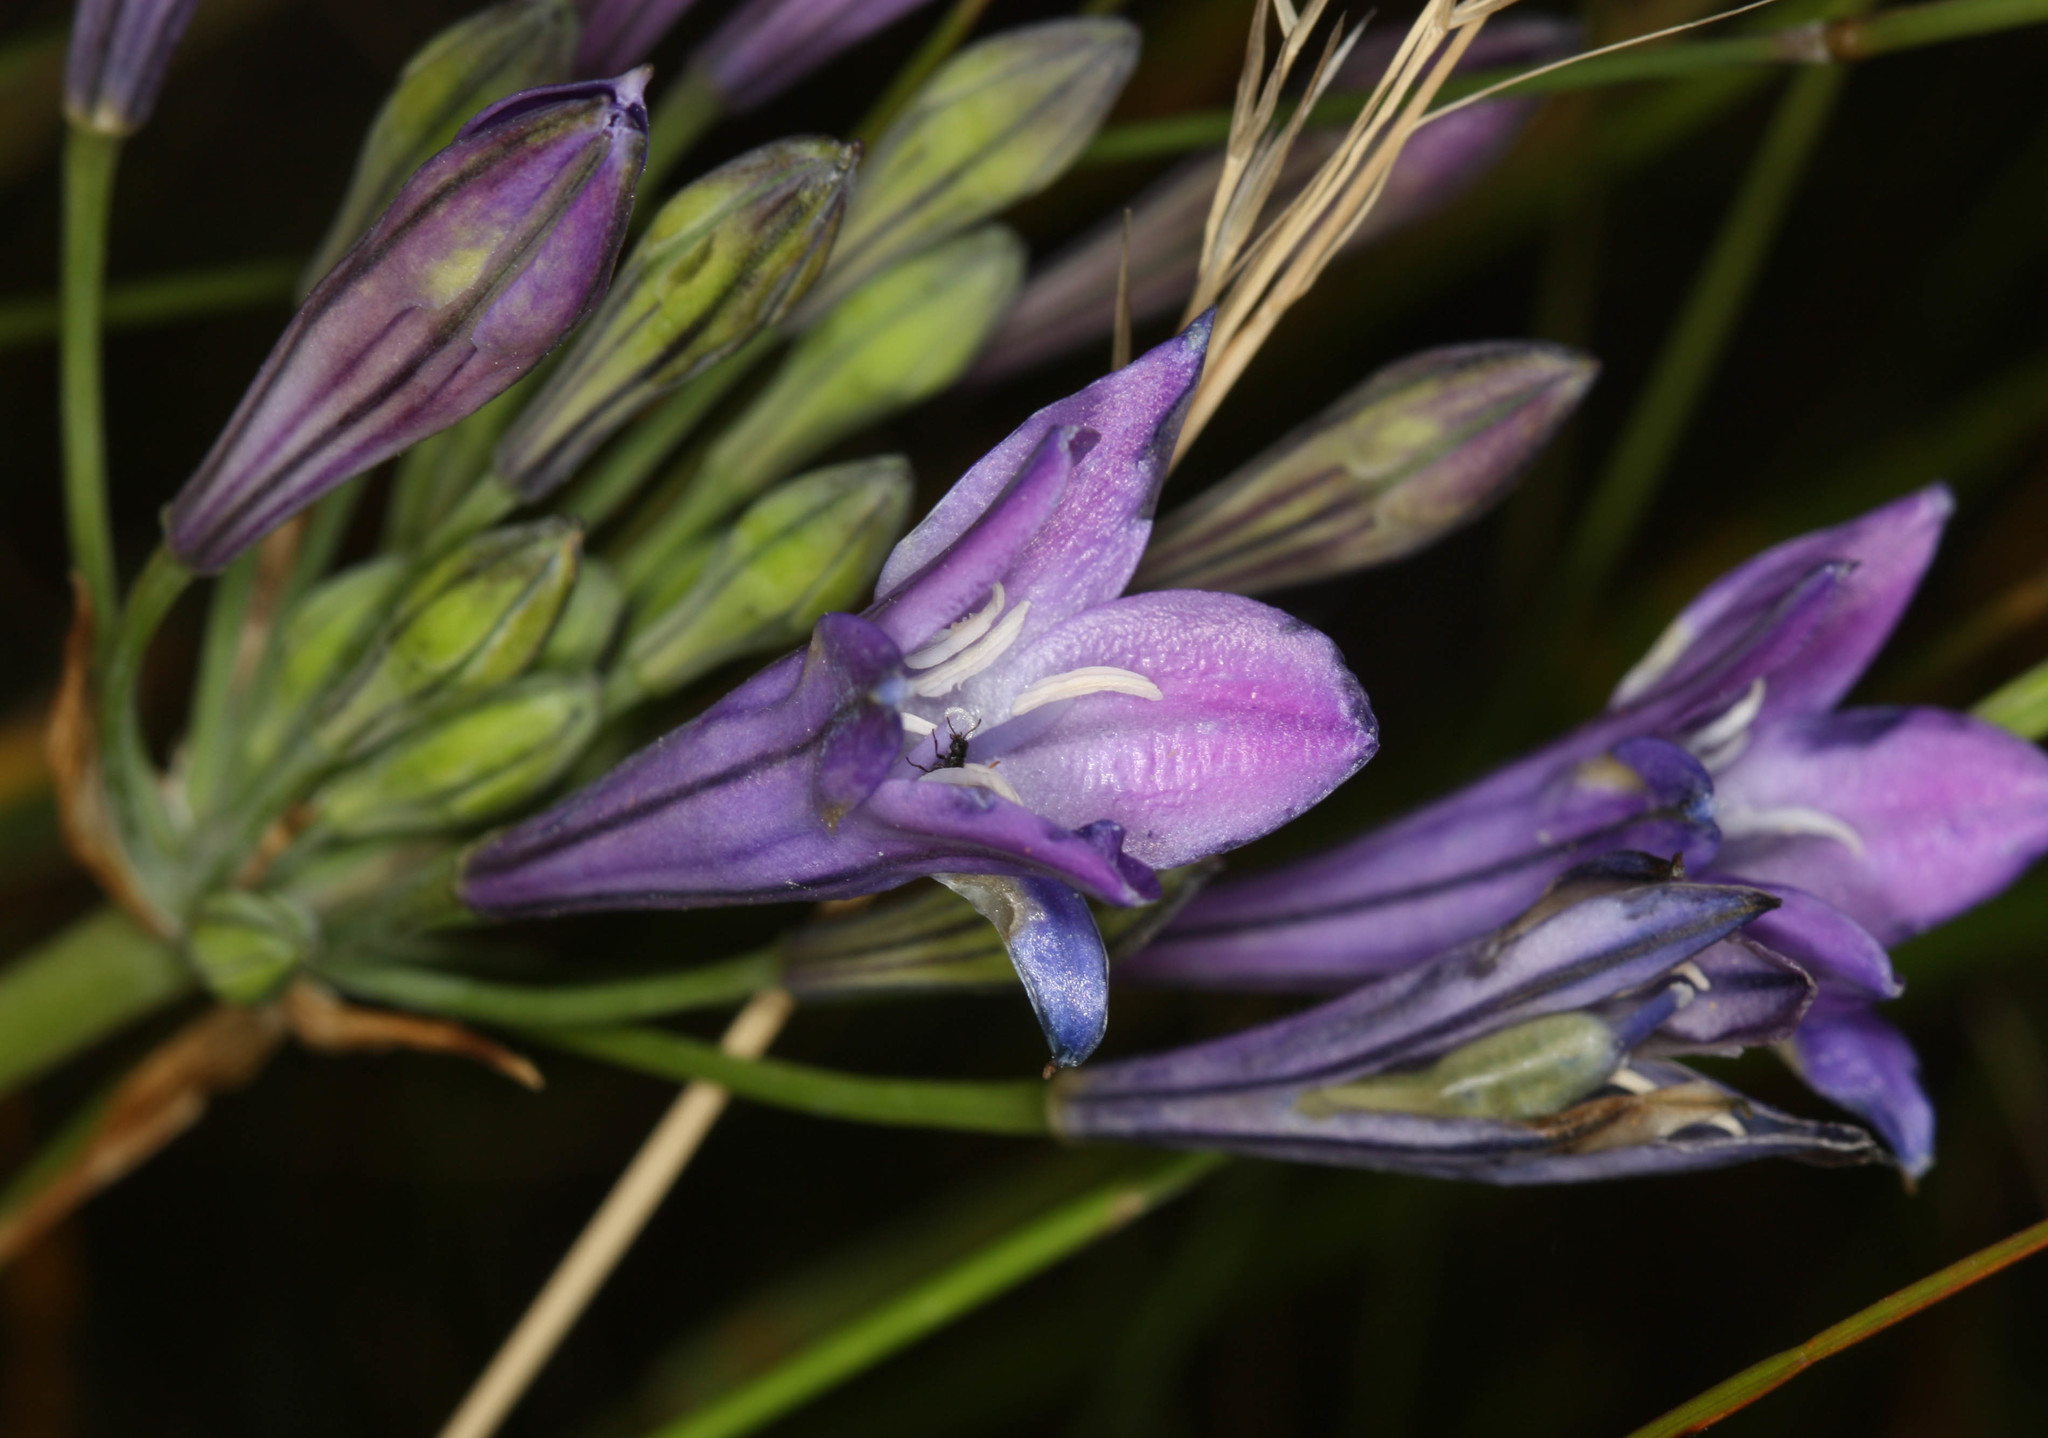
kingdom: Plantae
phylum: Tracheophyta
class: Liliopsida
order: Asparagales
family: Asparagaceae
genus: Triteleia
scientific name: Triteleia laxa
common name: Triplet-lily
